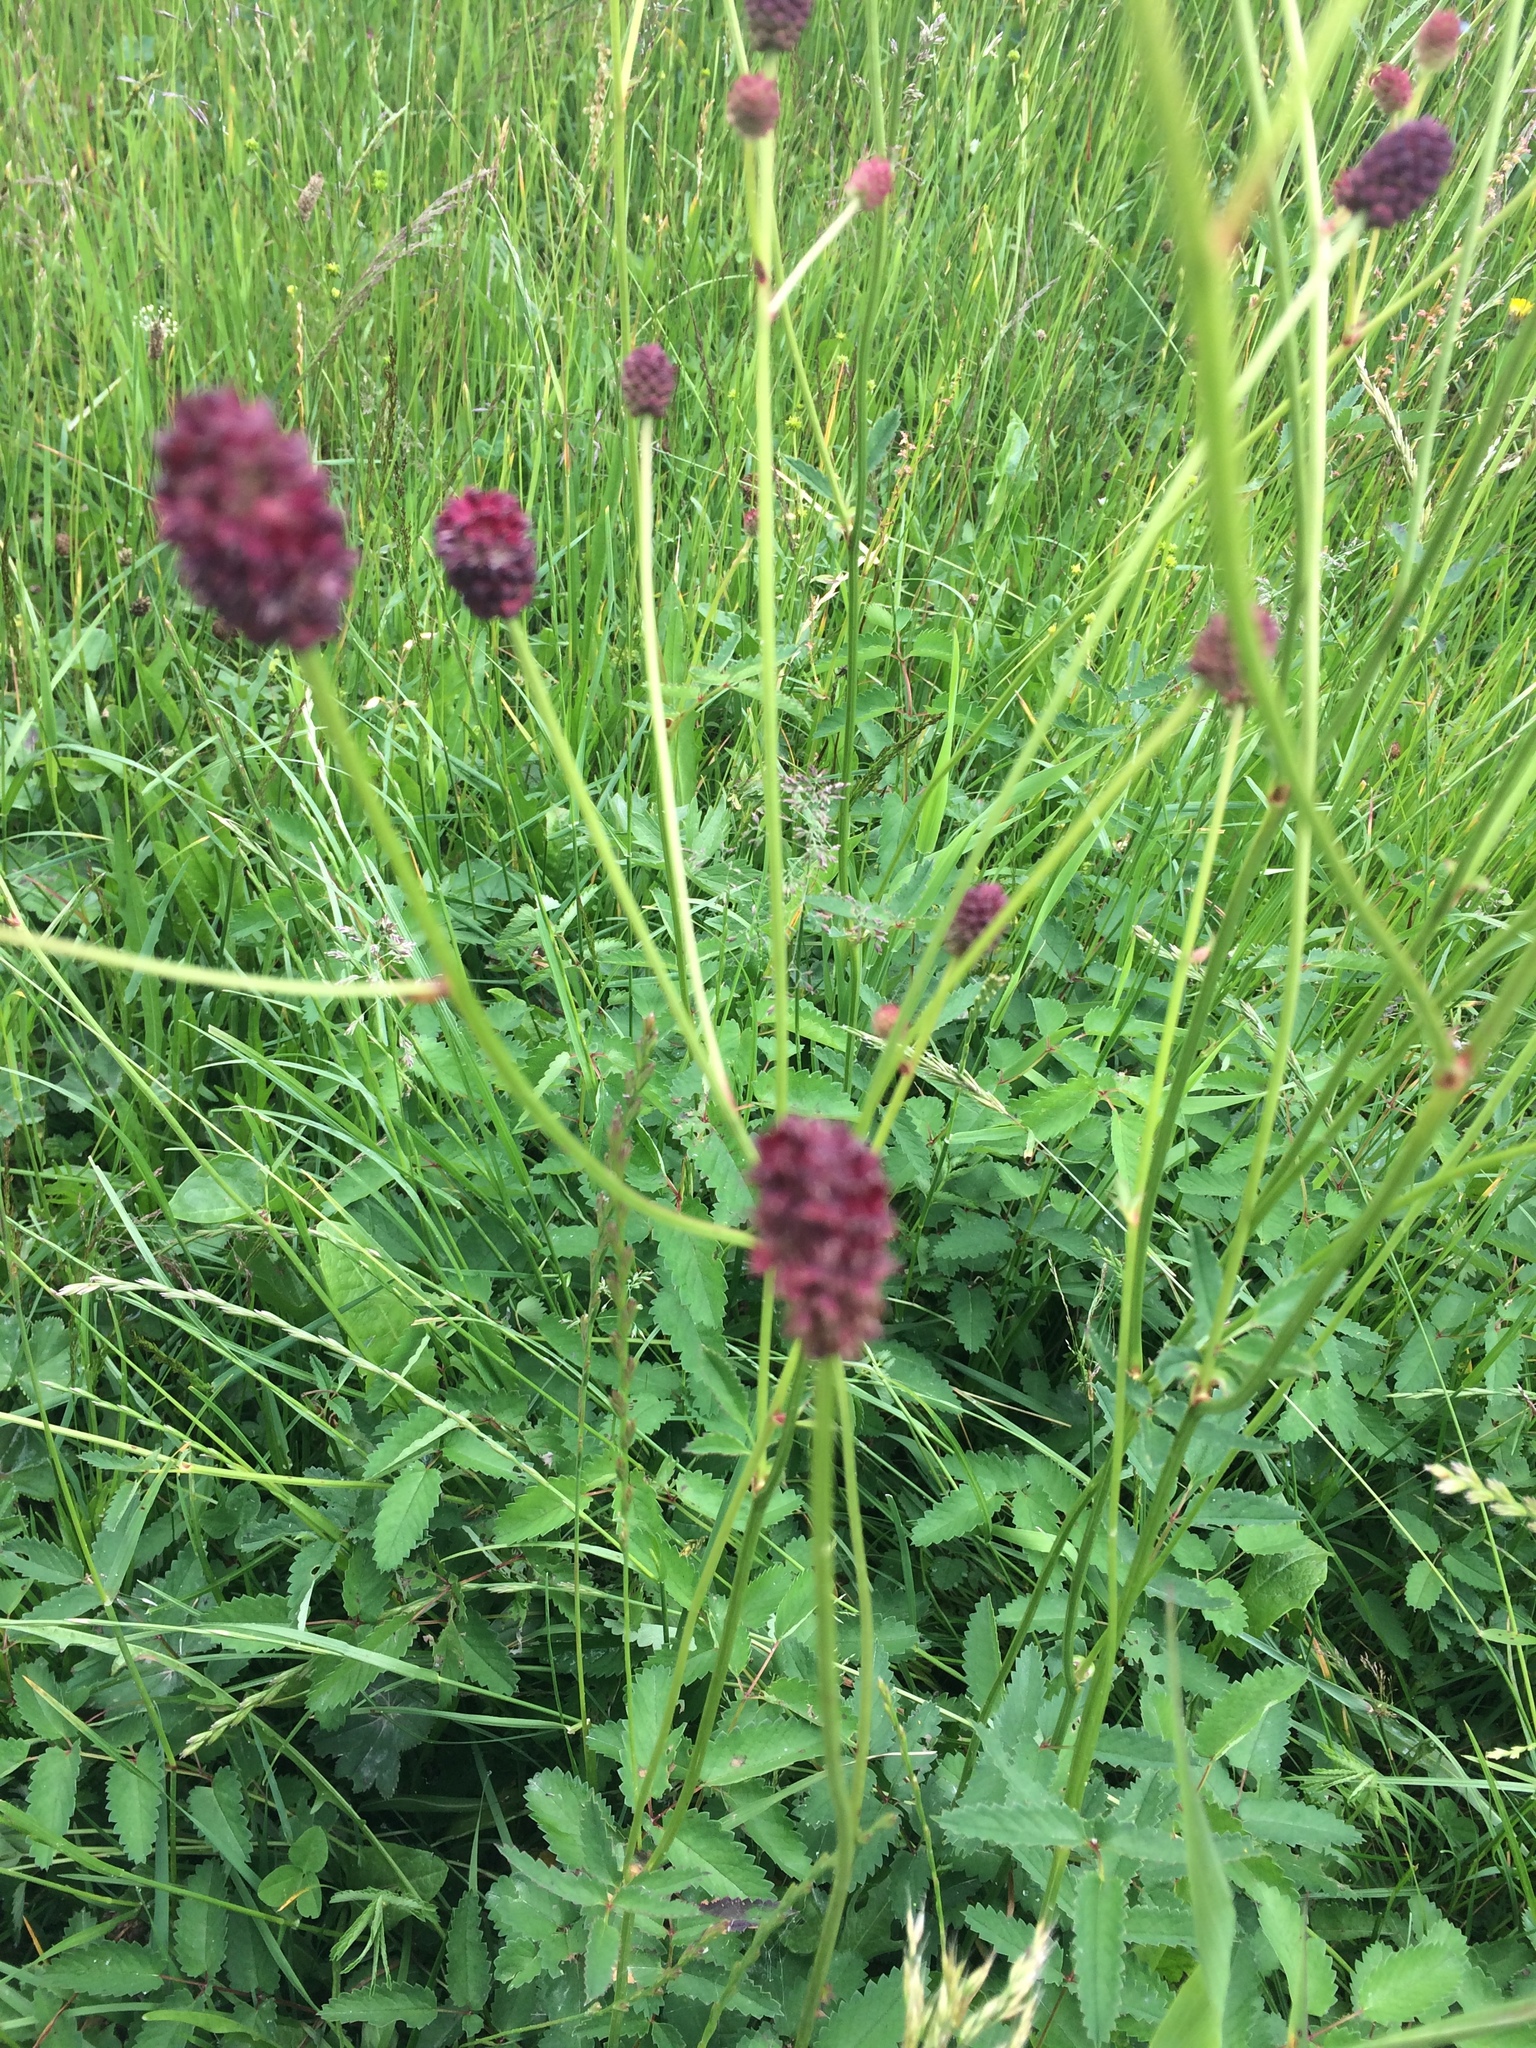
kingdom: Plantae
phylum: Tracheophyta
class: Magnoliopsida
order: Rosales
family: Rosaceae
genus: Sanguisorba
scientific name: Sanguisorba officinalis
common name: Great burnet
